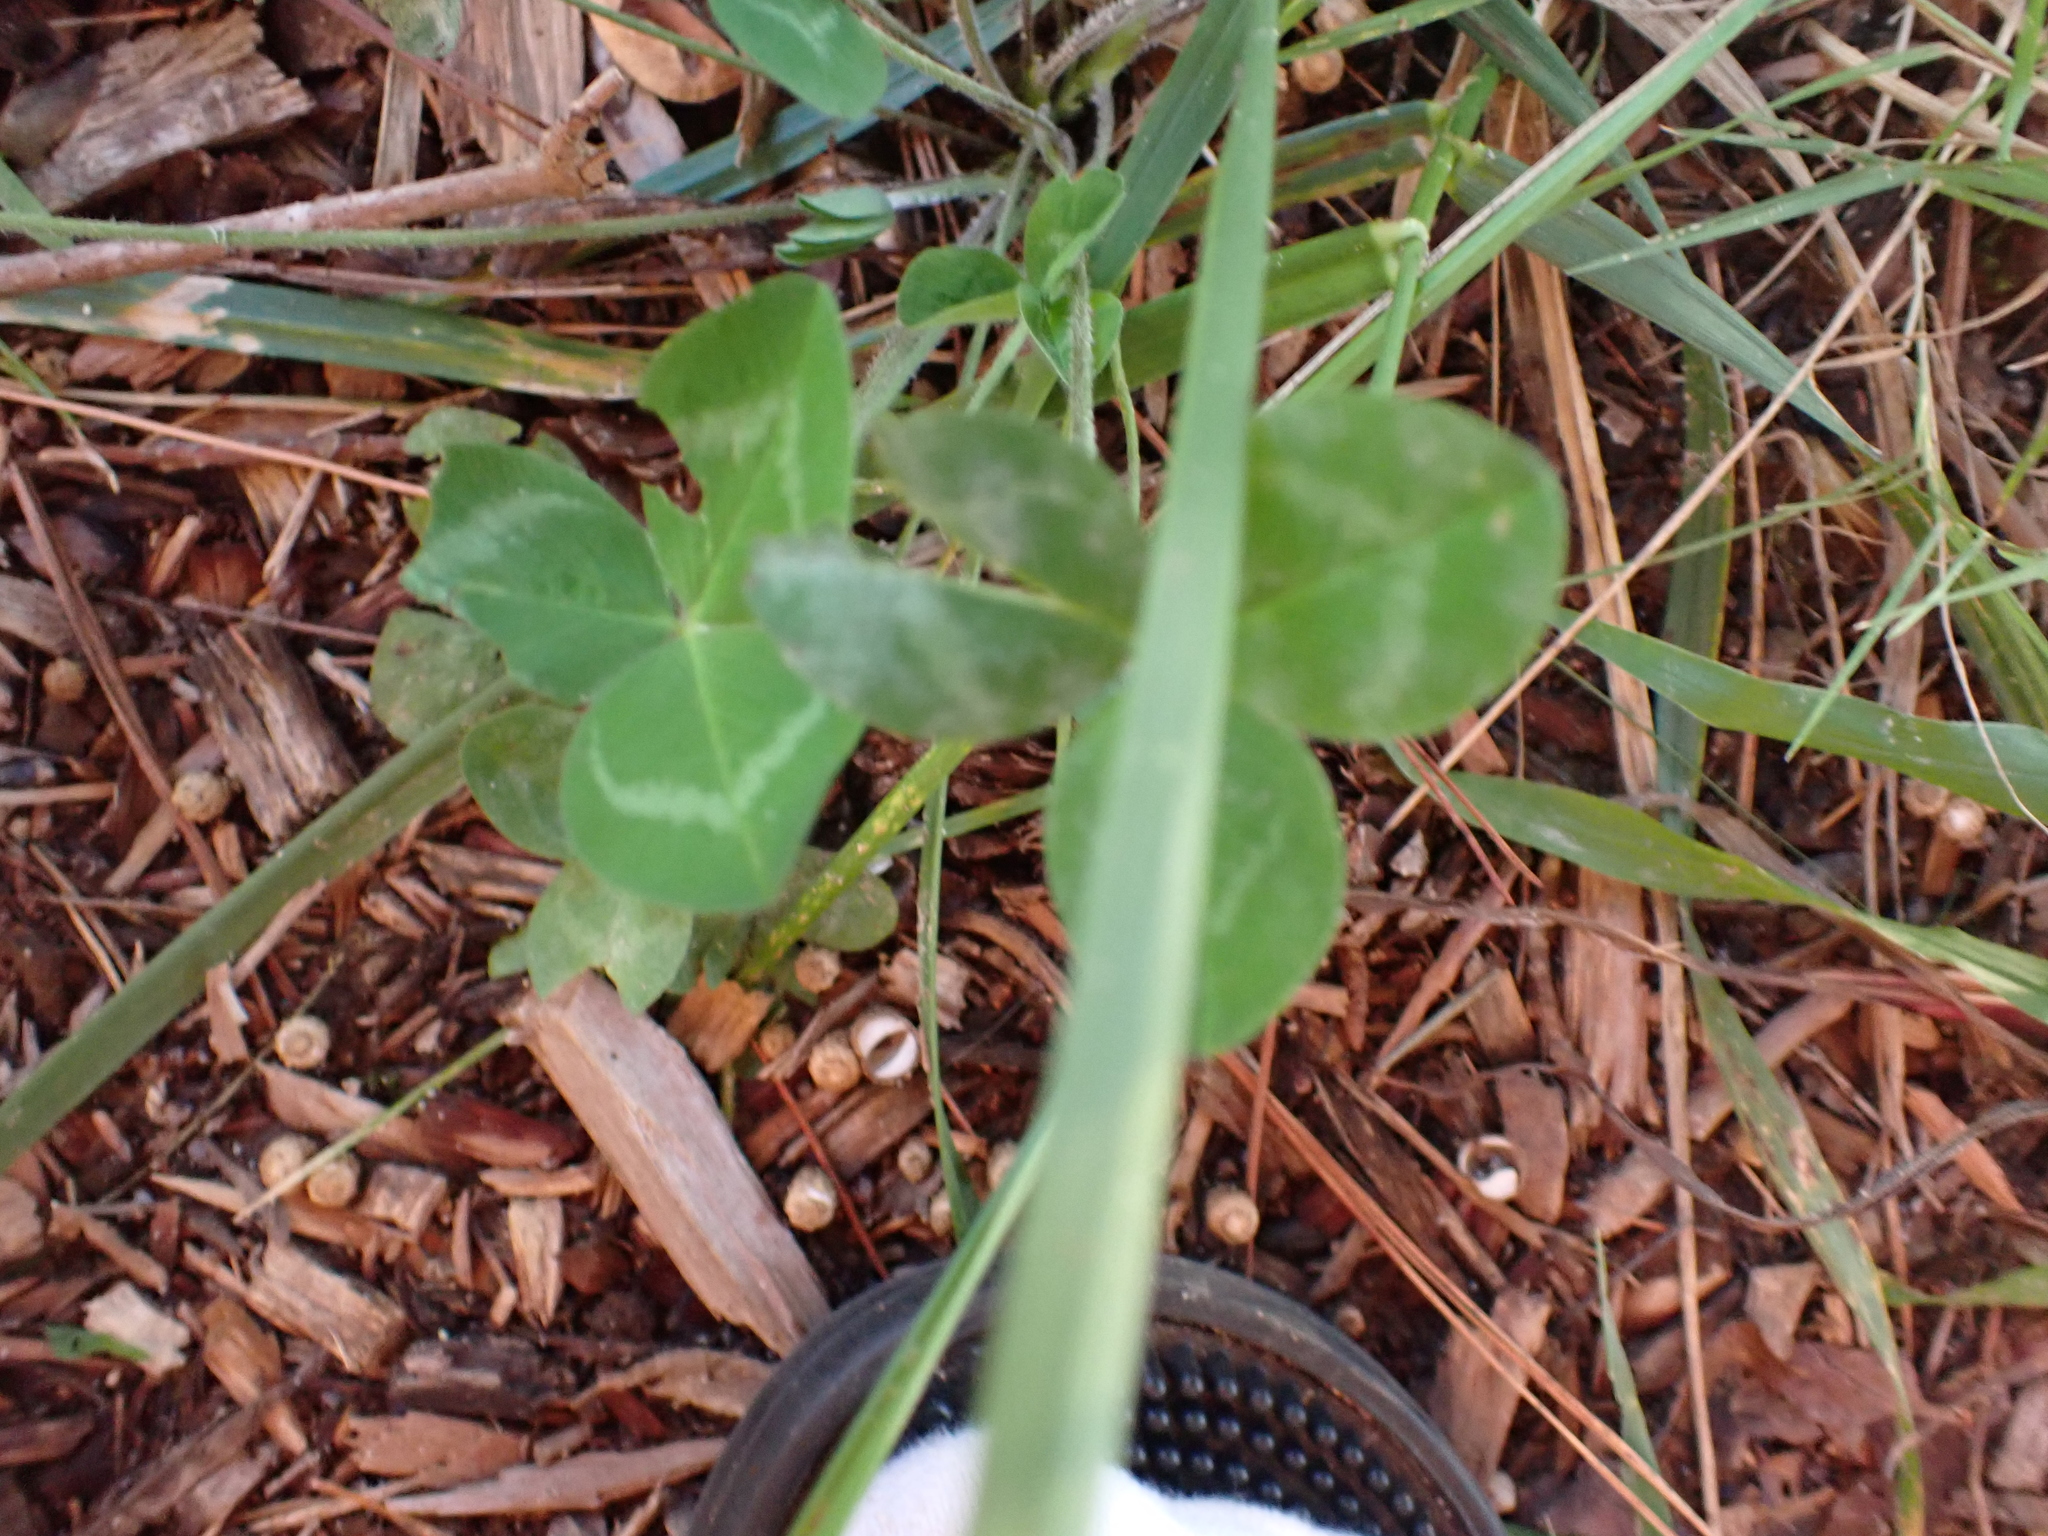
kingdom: Plantae
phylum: Tracheophyta
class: Magnoliopsida
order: Fabales
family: Fabaceae
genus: Trifolium
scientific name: Trifolium pratense
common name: Red clover
